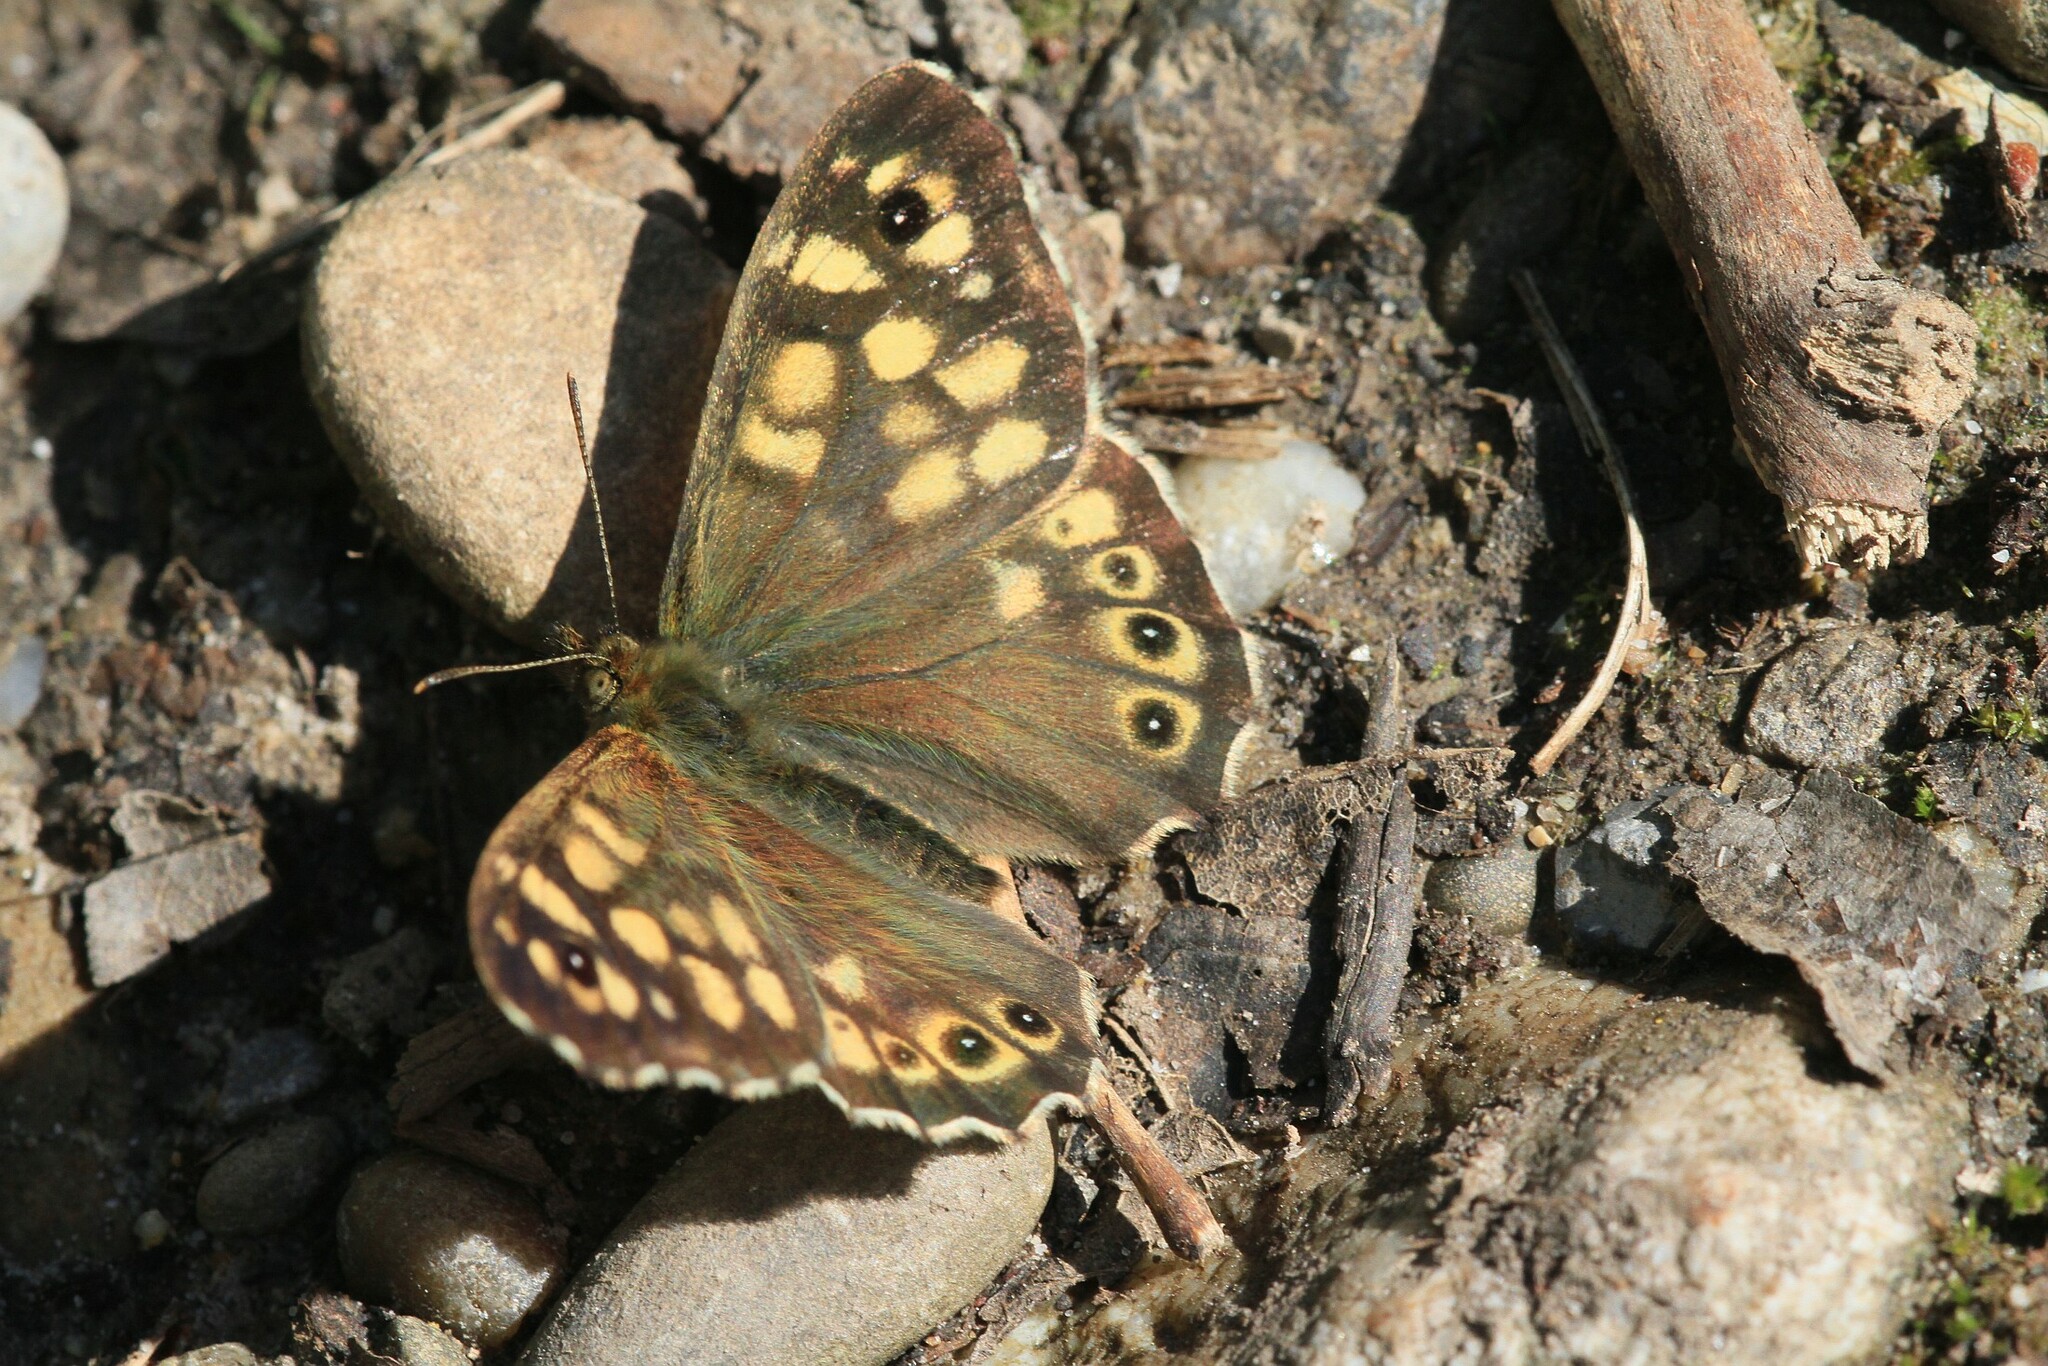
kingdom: Animalia
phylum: Arthropoda
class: Insecta
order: Lepidoptera
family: Nymphalidae
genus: Pararge
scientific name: Pararge aegeria
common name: Speckled wood
